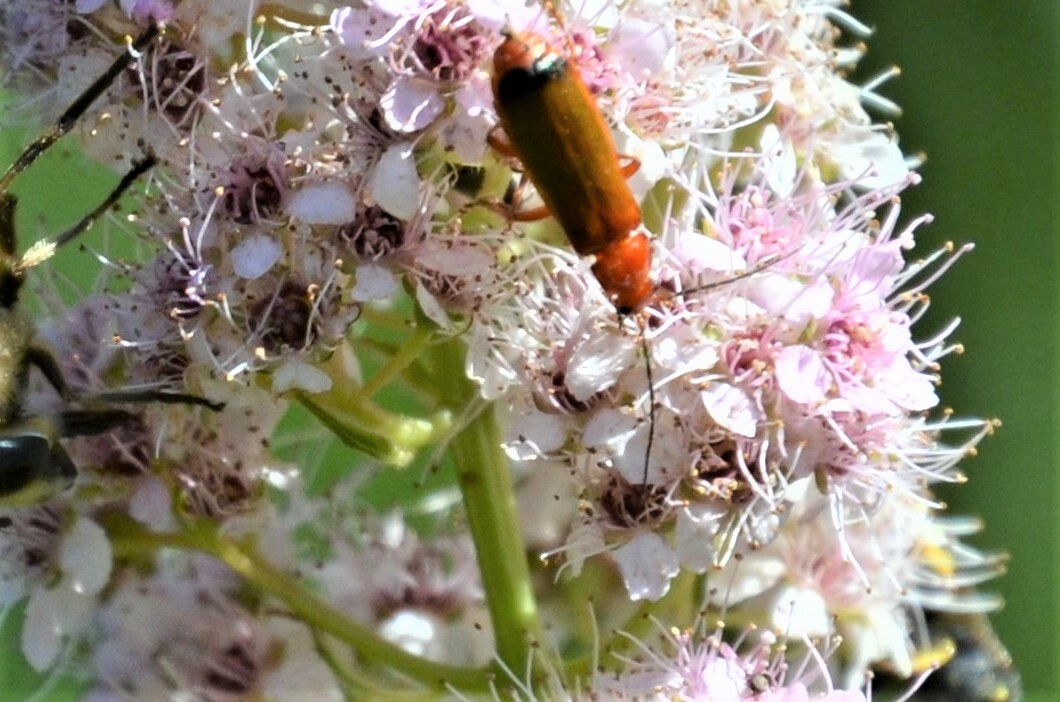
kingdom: Animalia
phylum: Arthropoda
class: Insecta
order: Coleoptera
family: Cantharidae
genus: Rhagonycha
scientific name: Rhagonycha fulva
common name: Common red soldier beetle
